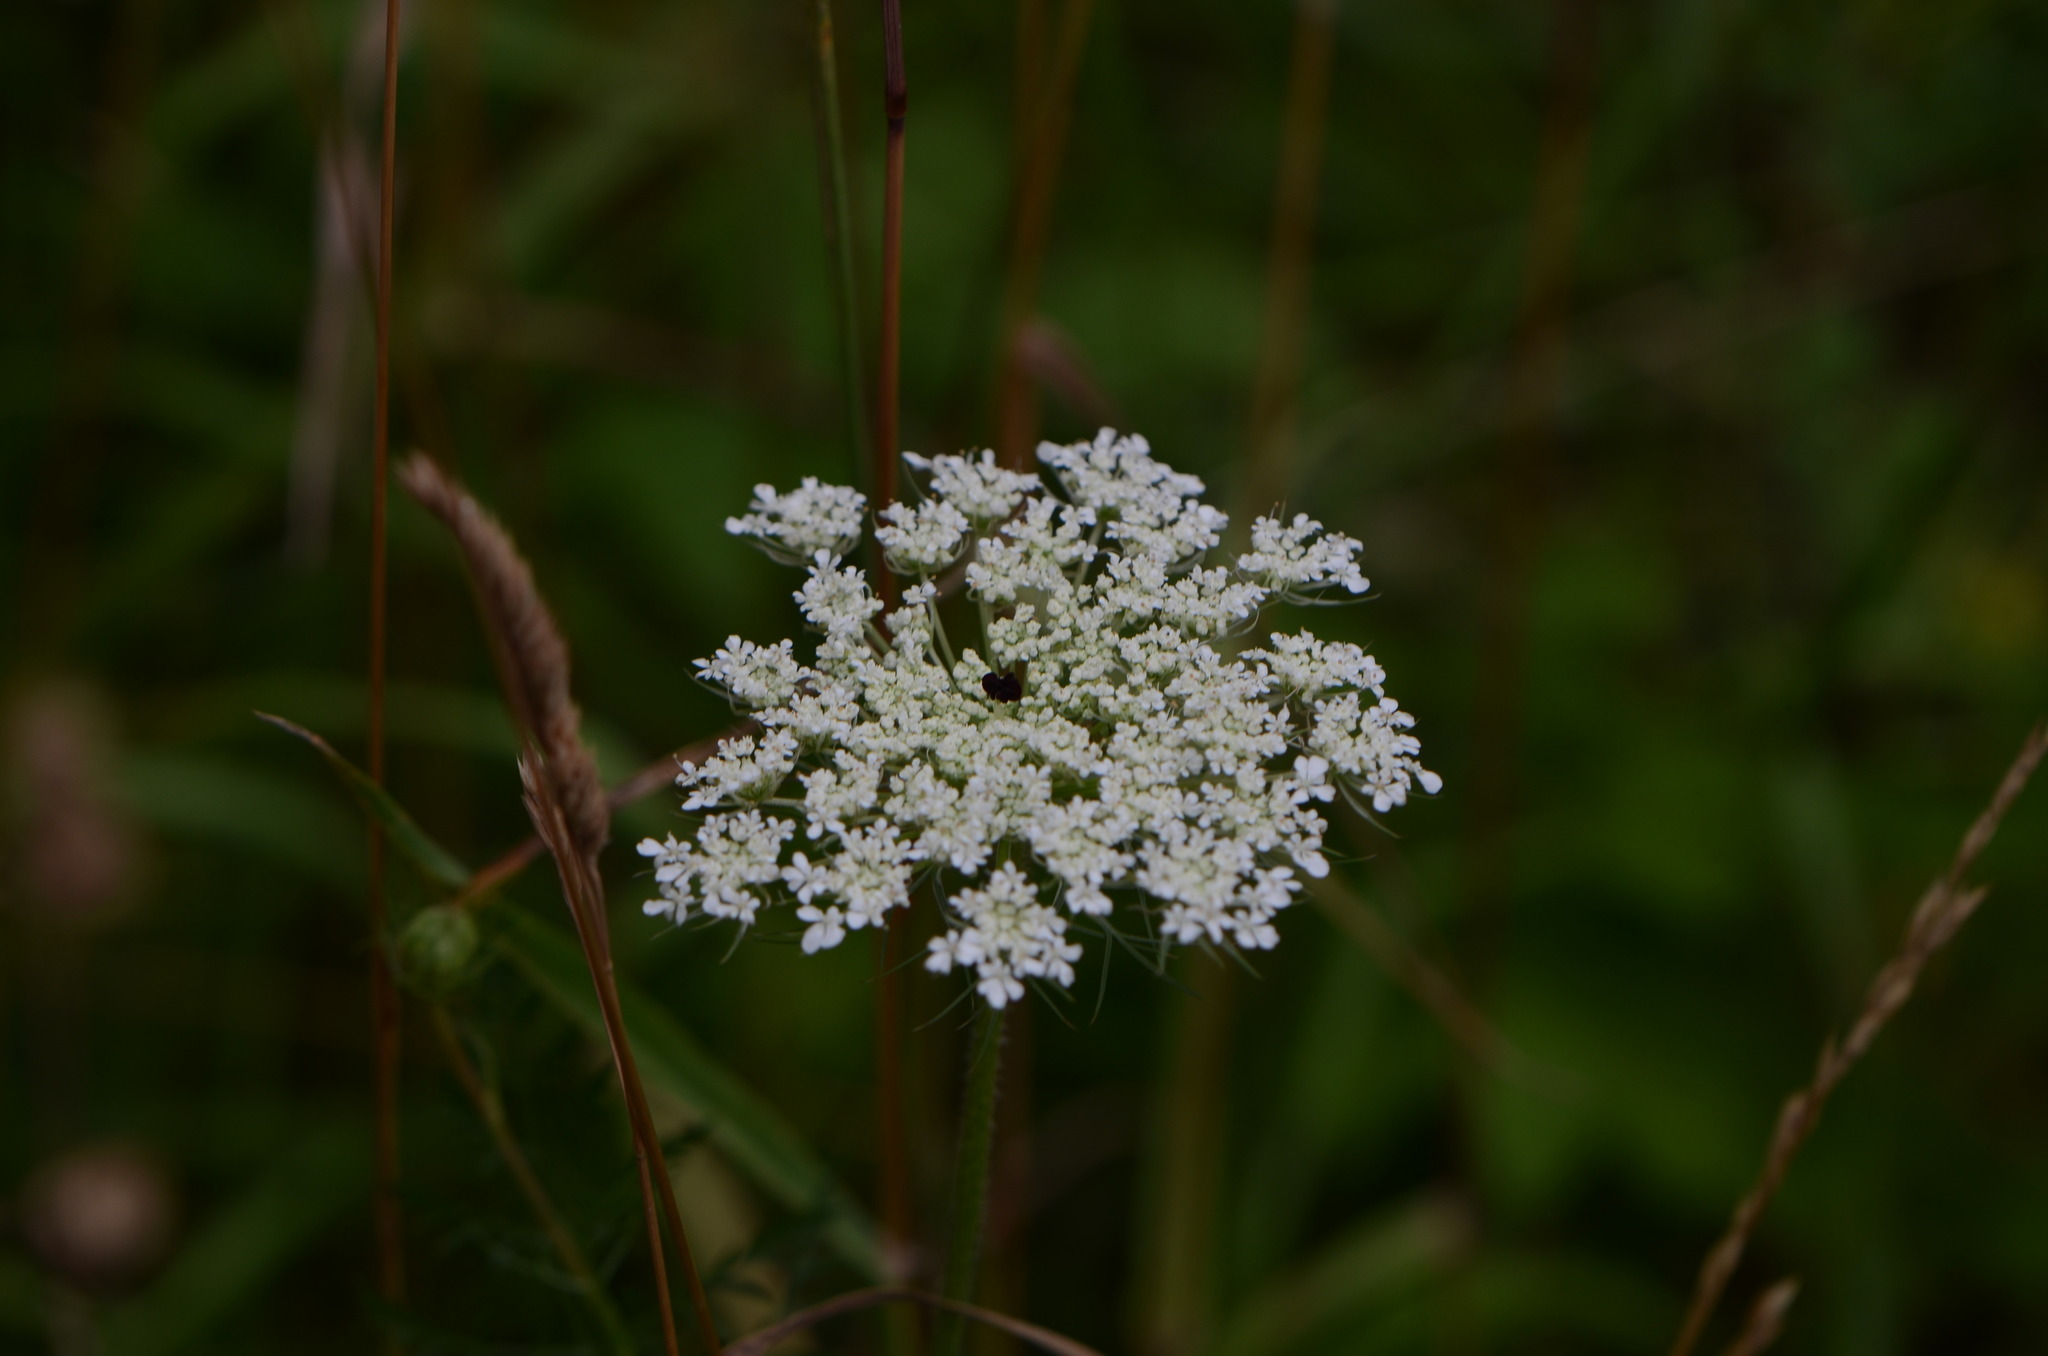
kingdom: Plantae
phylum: Tracheophyta
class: Magnoliopsida
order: Apiales
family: Apiaceae
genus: Daucus
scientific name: Daucus carota
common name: Wild carrot
